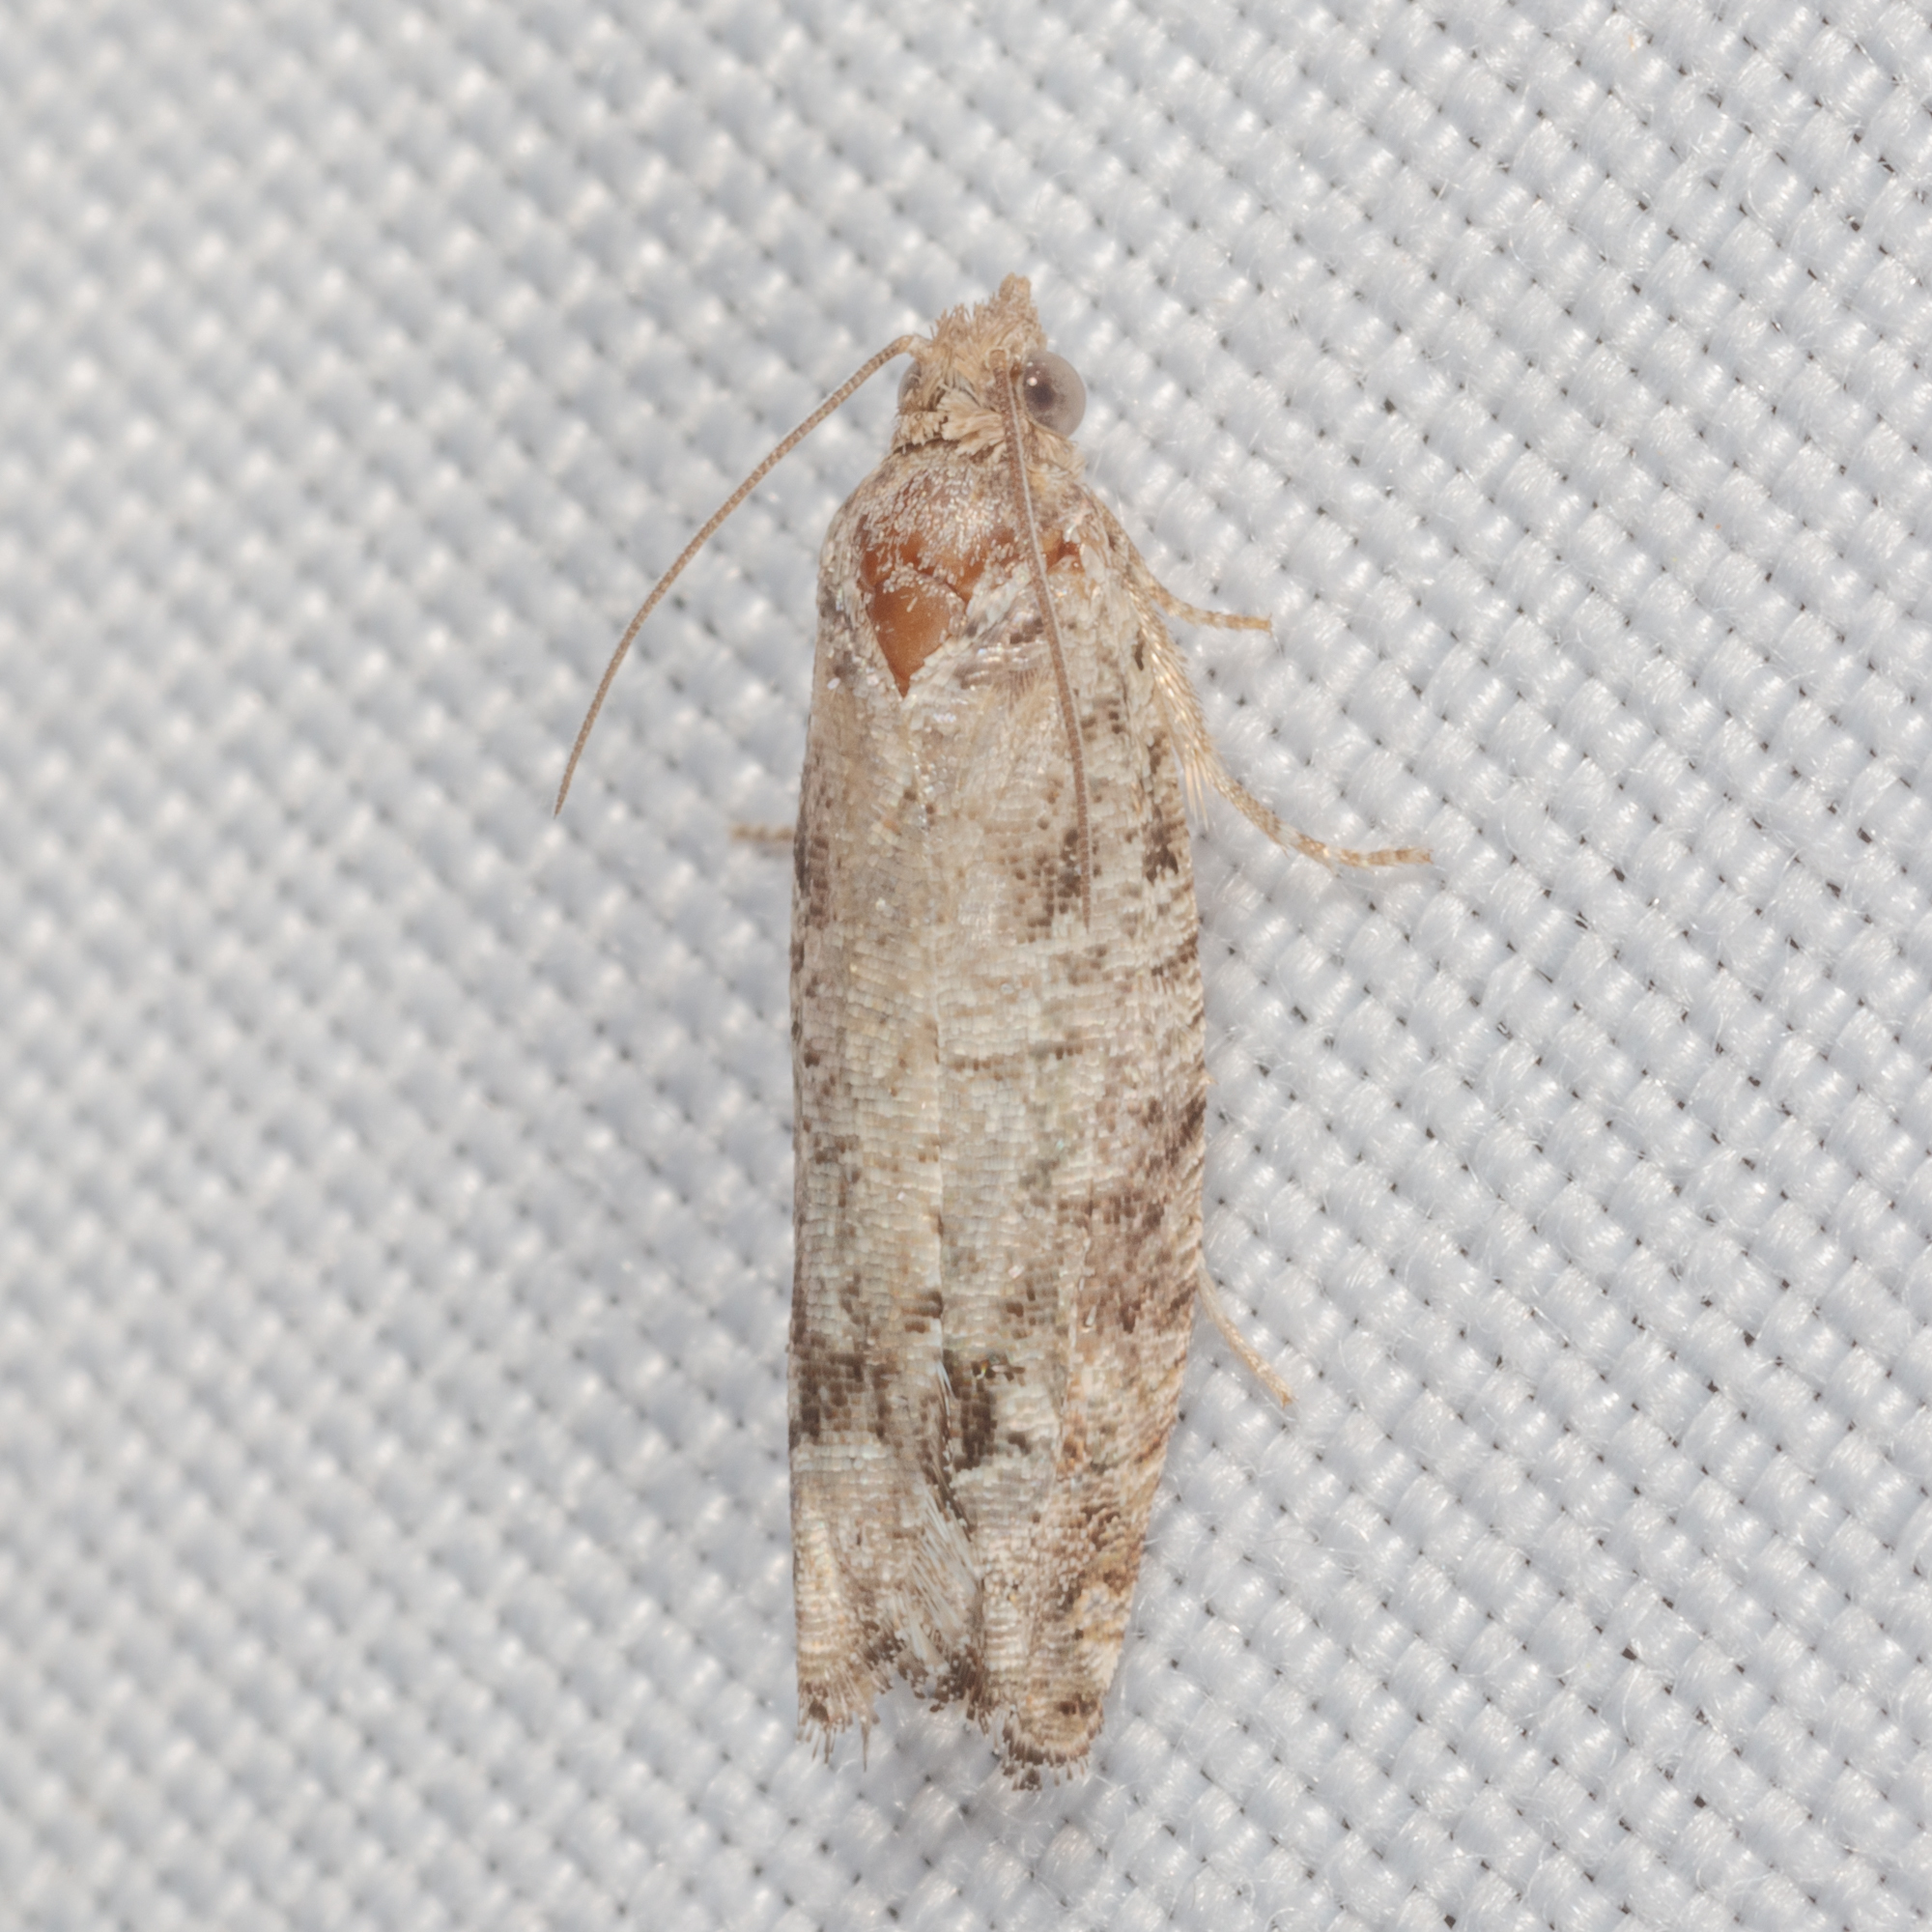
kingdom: Animalia
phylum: Arthropoda
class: Insecta
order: Lepidoptera
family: Tortricidae
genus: Pseudexentera
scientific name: Pseudexentera knudsoni
